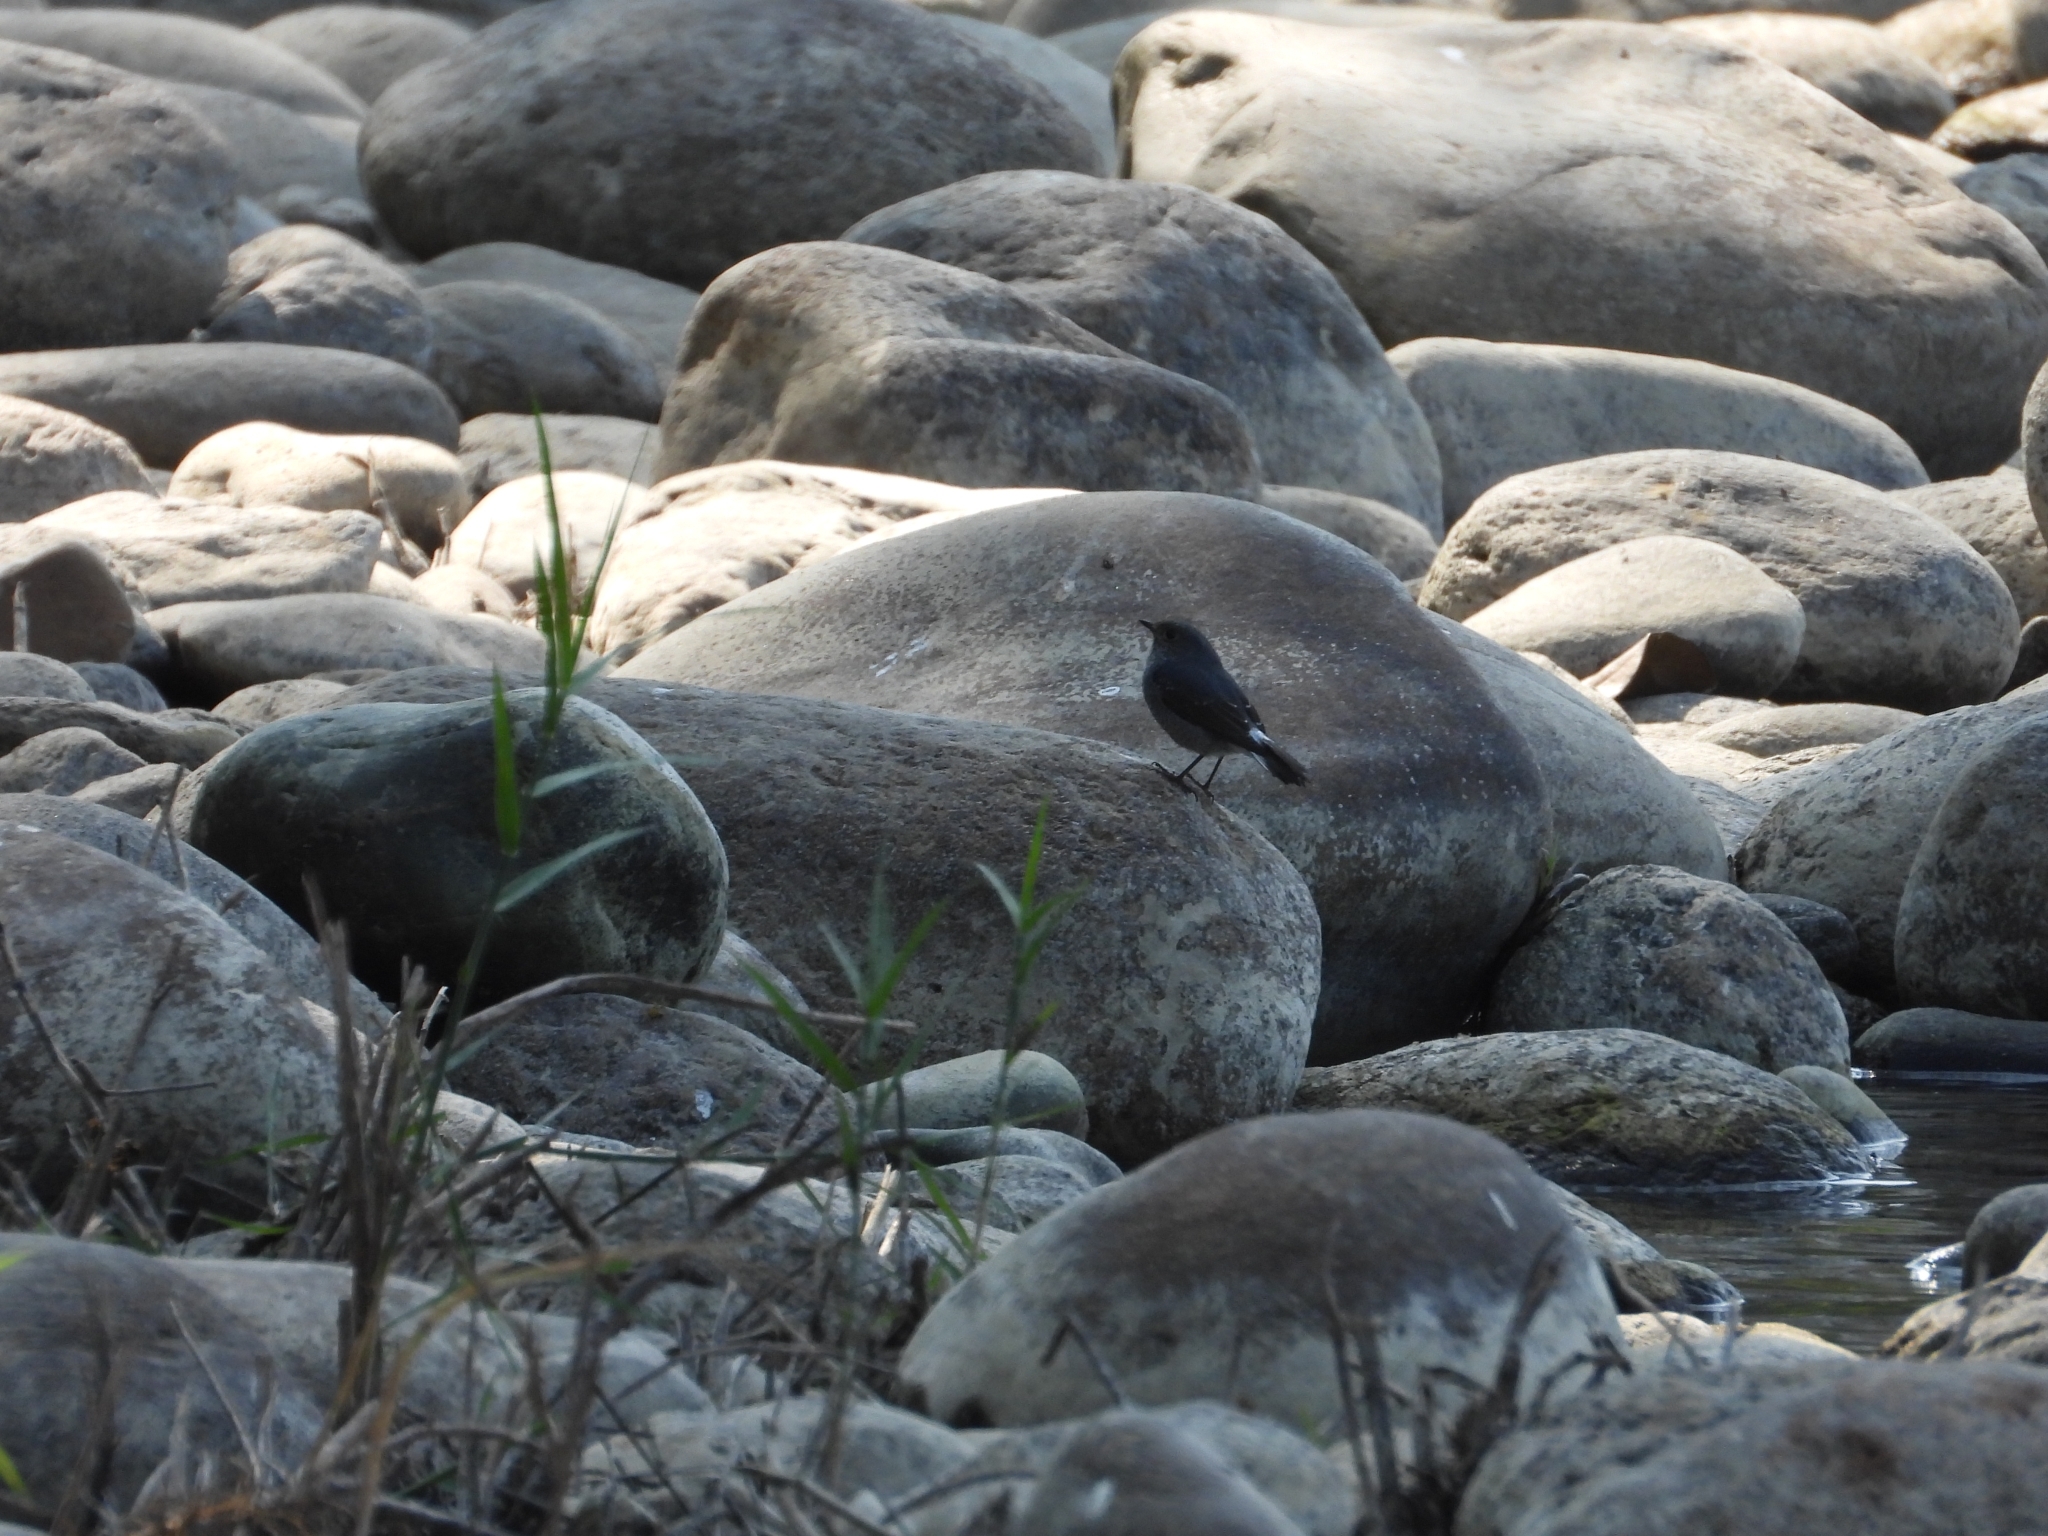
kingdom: Animalia
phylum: Chordata
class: Aves
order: Passeriformes
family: Muscicapidae
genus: Phoenicurus
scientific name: Phoenicurus fuliginosus
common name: Plumbeous water redstart
